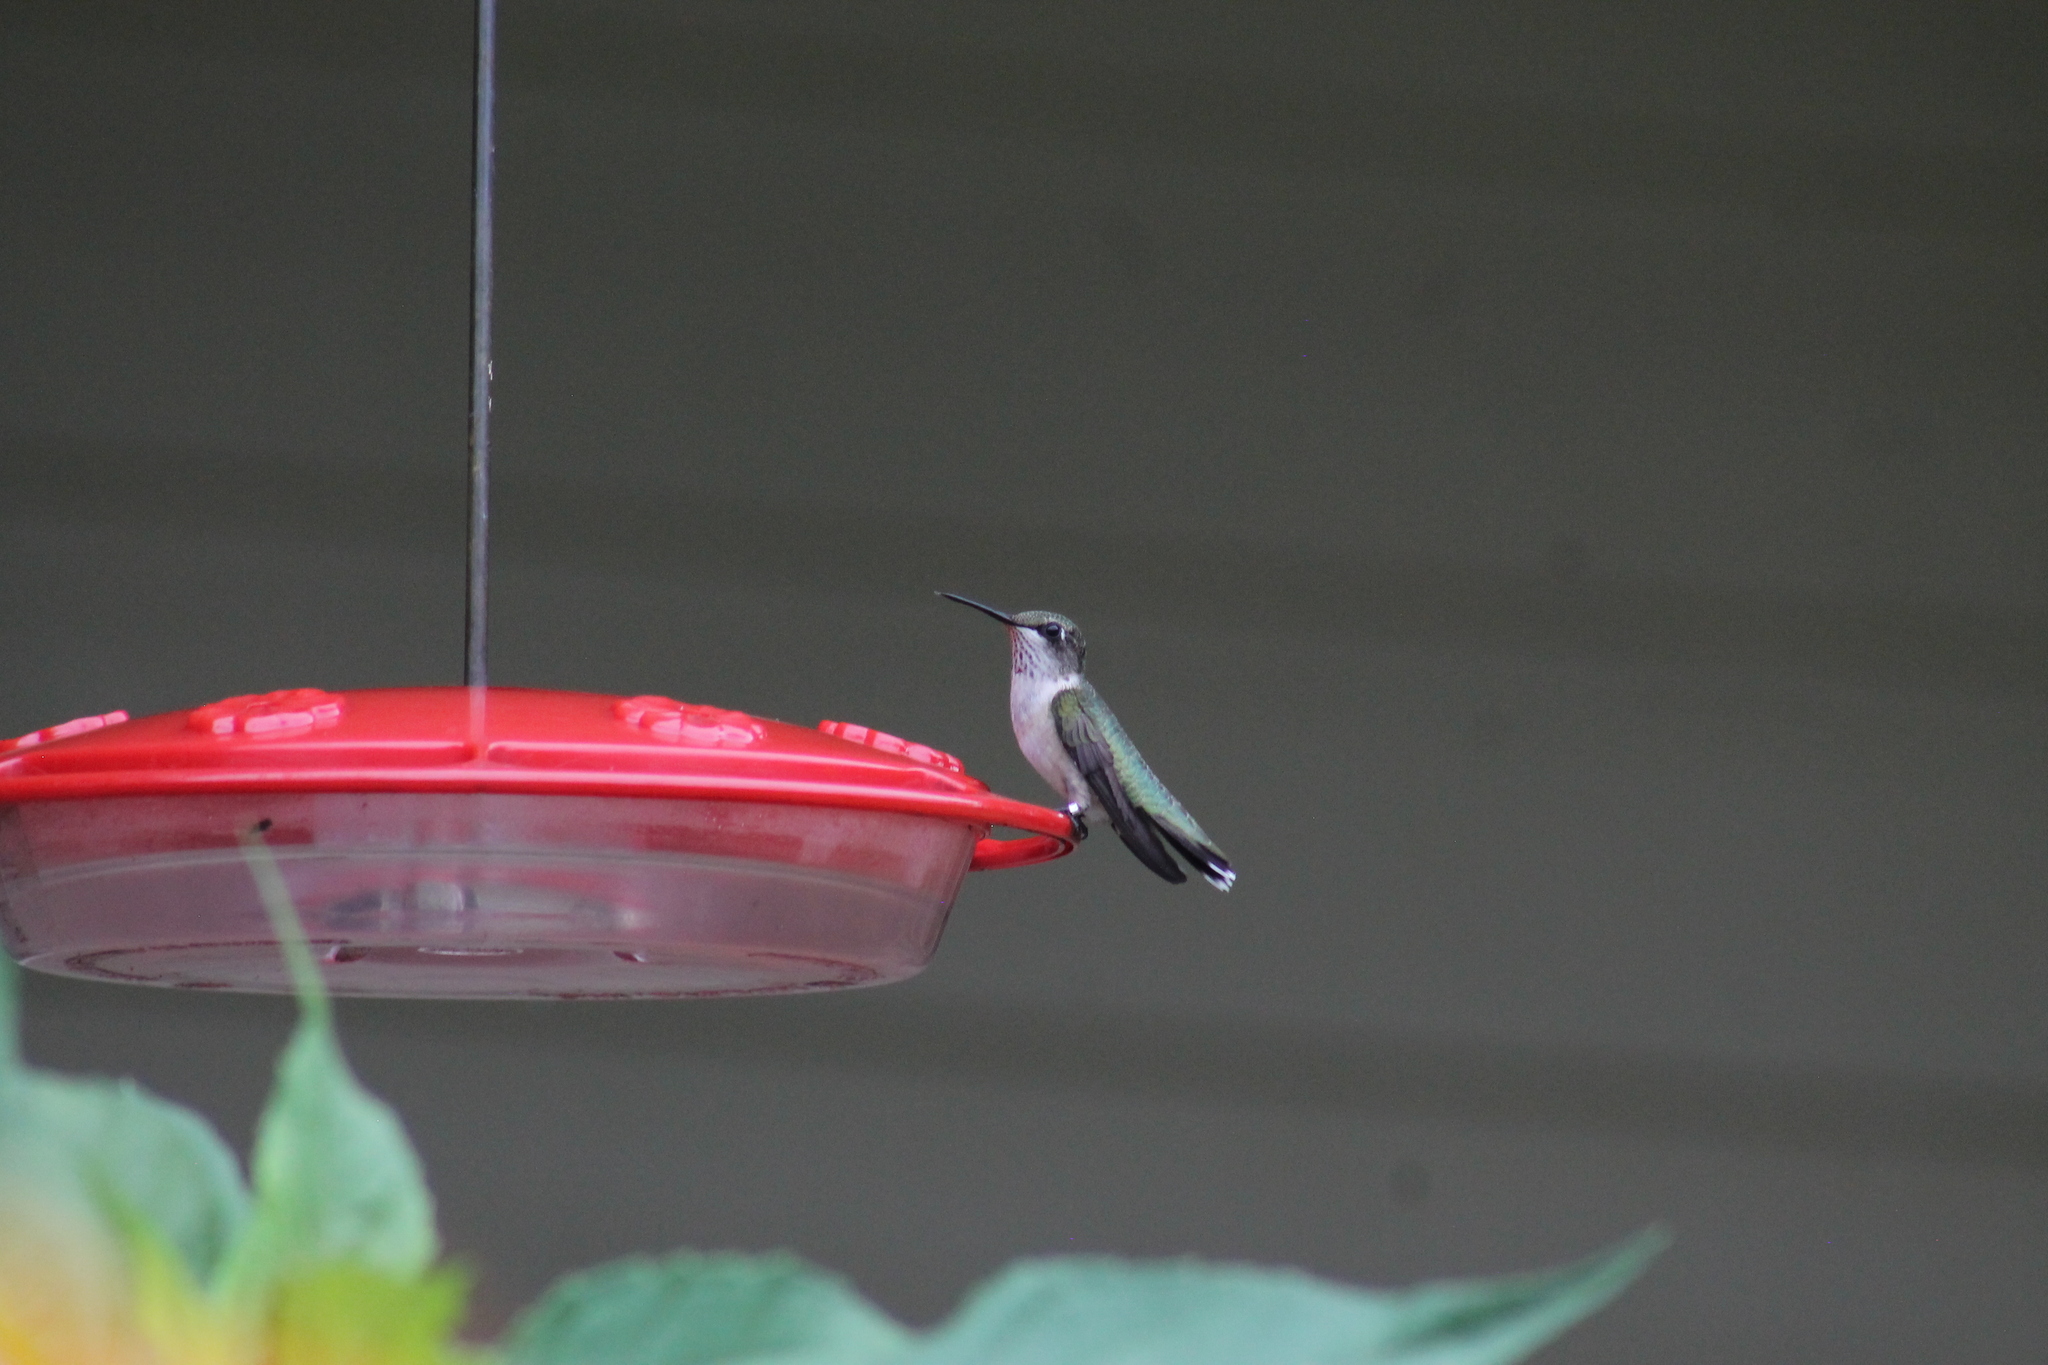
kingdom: Animalia
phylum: Chordata
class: Aves
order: Apodiformes
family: Trochilidae
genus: Archilochus
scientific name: Archilochus colubris
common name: Ruby-throated hummingbird
